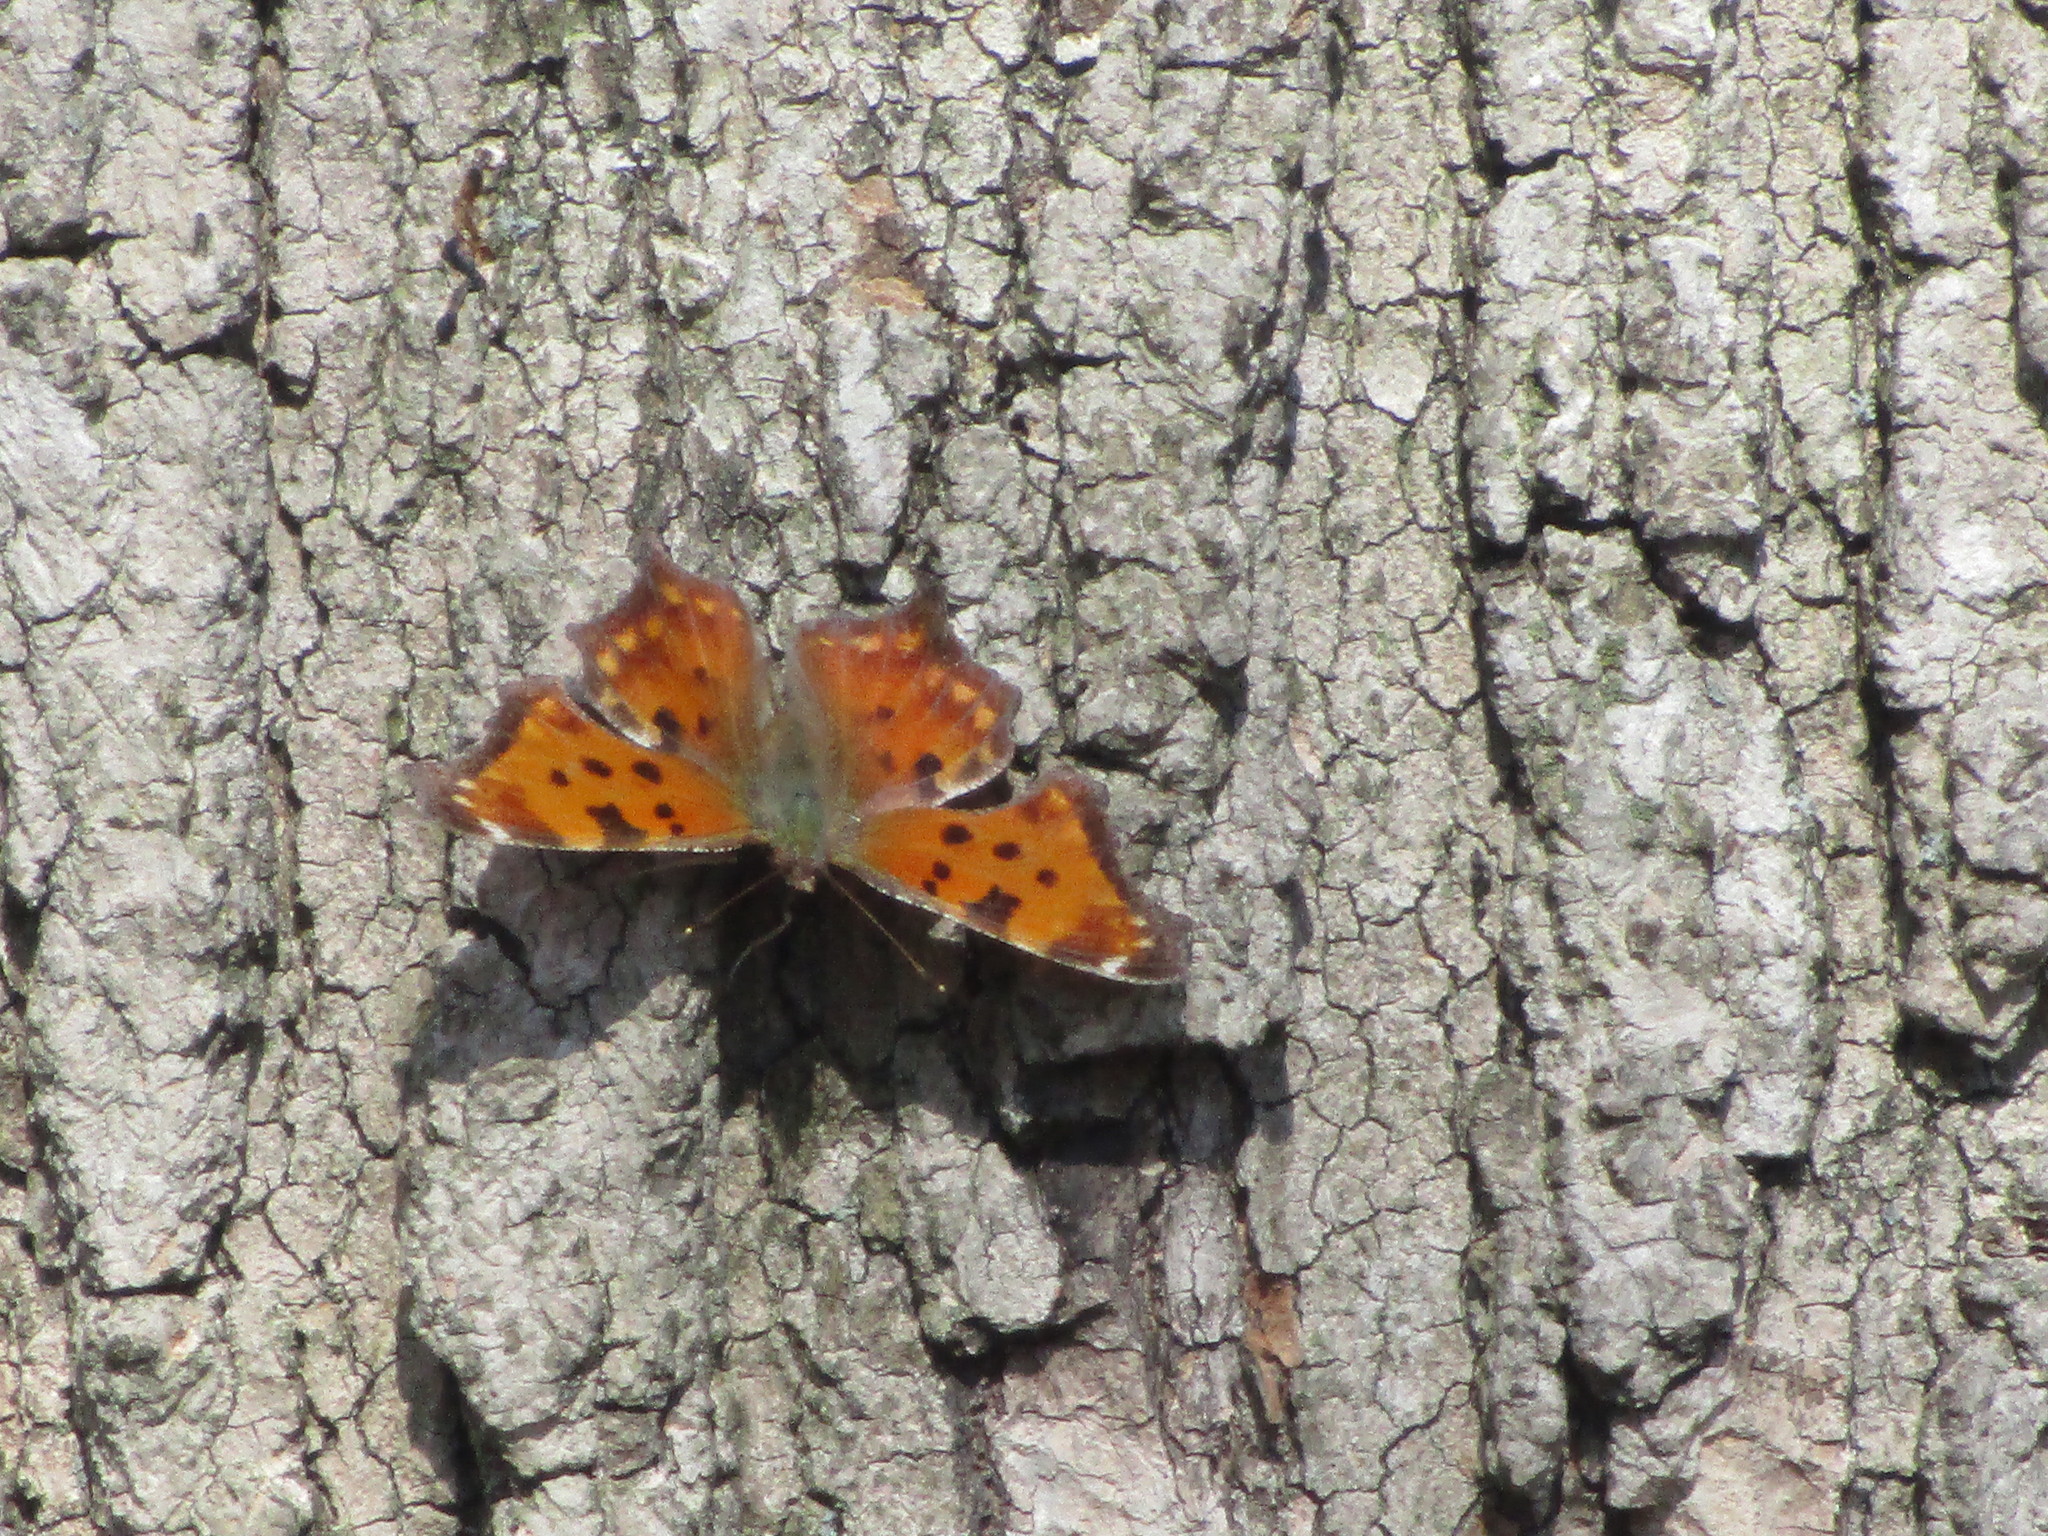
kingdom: Animalia
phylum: Arthropoda
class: Insecta
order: Lepidoptera
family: Nymphalidae
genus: Polygonia
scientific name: Polygonia comma
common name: Eastern comma
